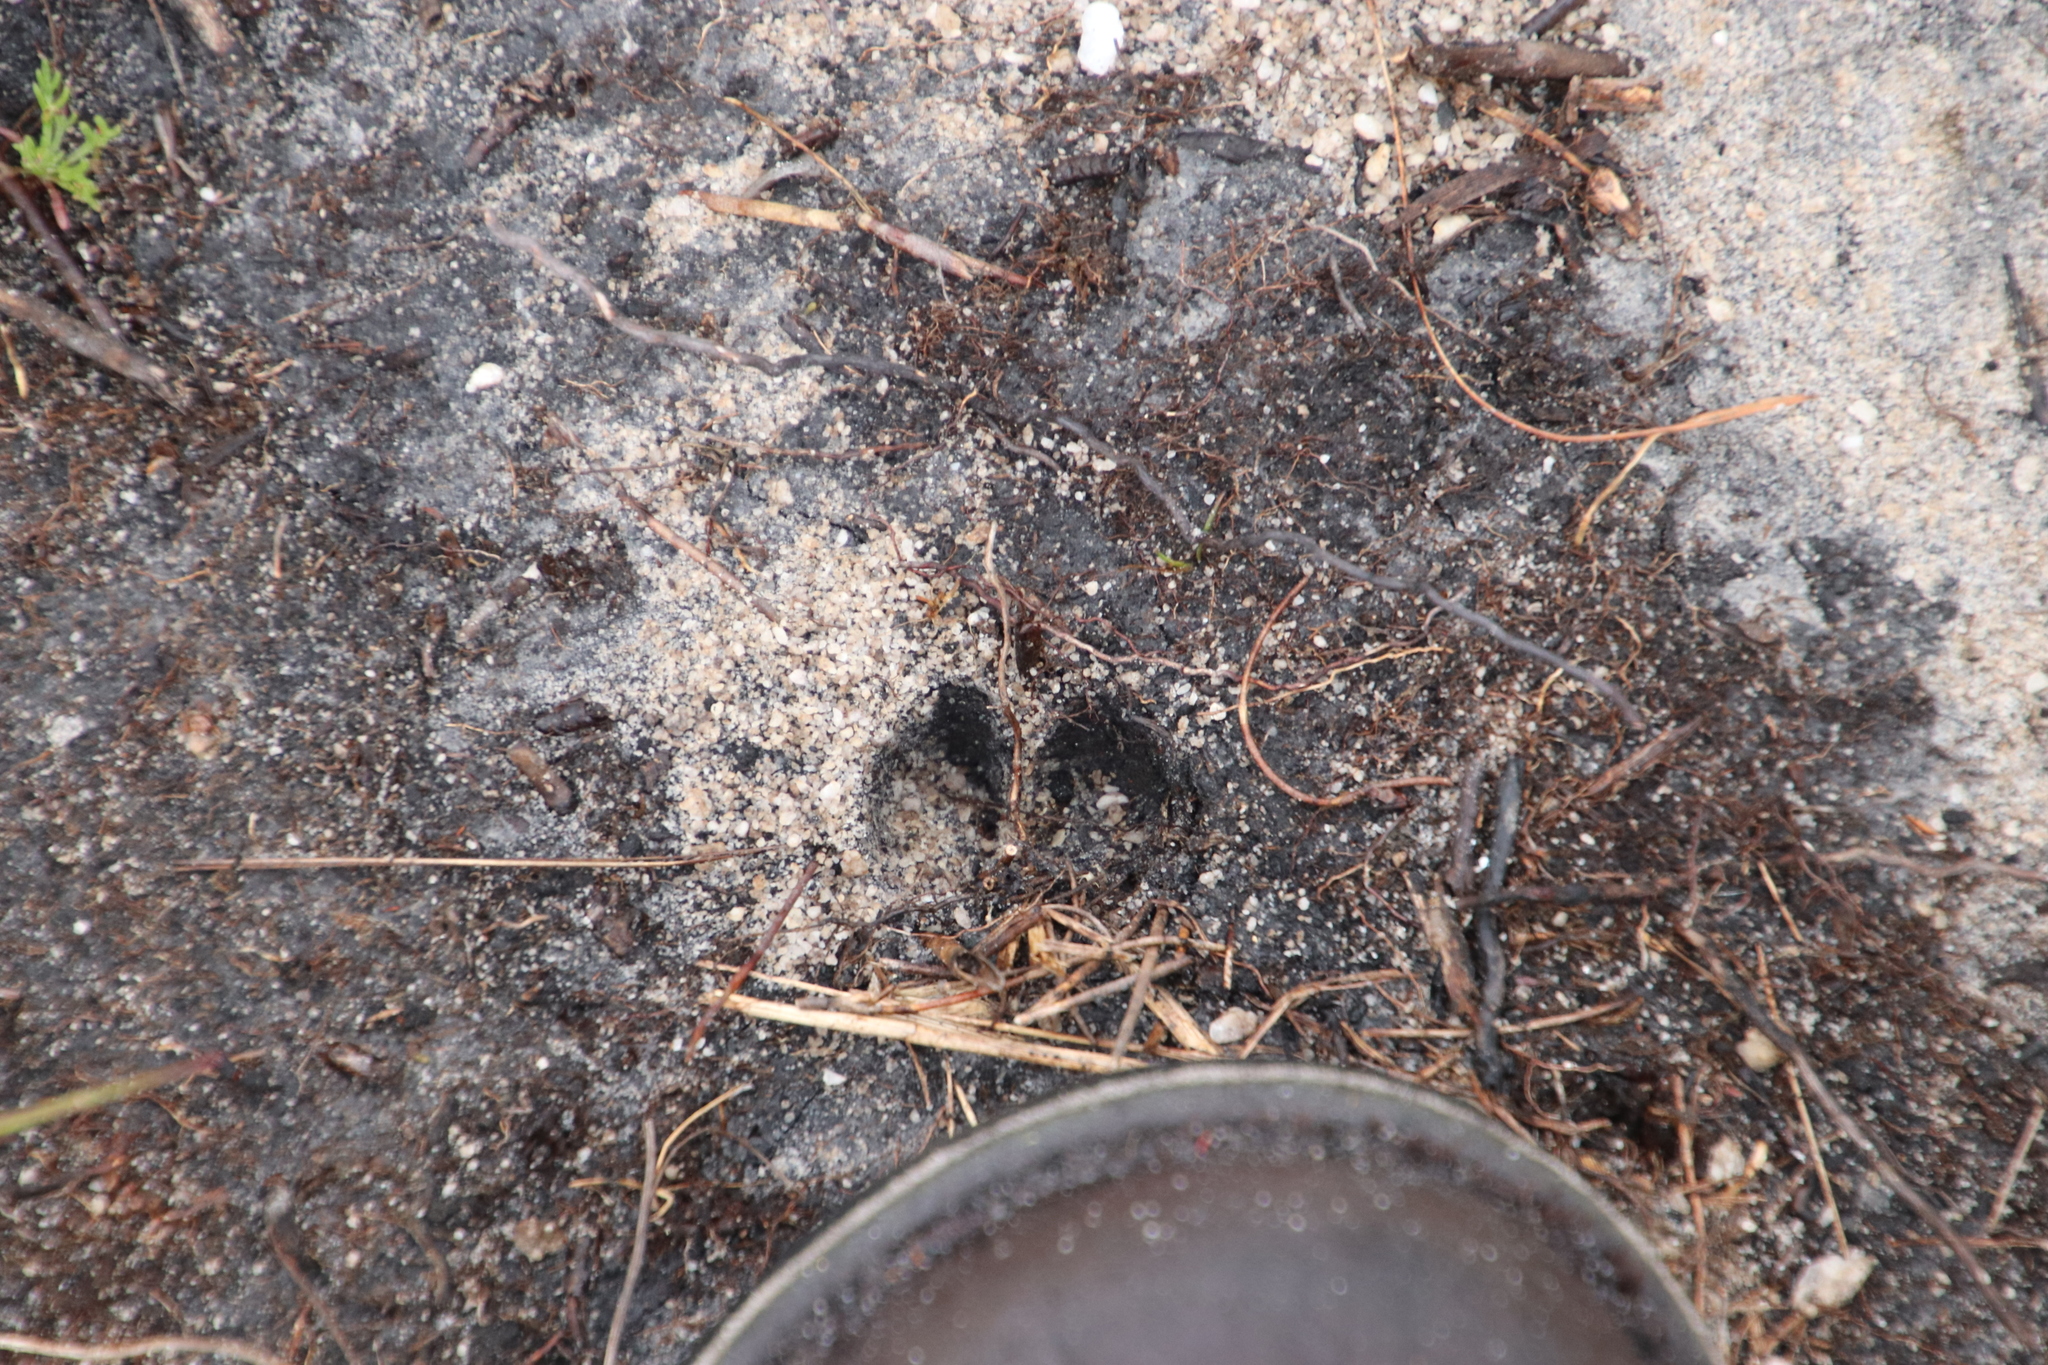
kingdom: Animalia
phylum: Chordata
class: Mammalia
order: Artiodactyla
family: Bovidae
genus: Oreotragus
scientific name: Oreotragus oreotragus
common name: Klipspringer
